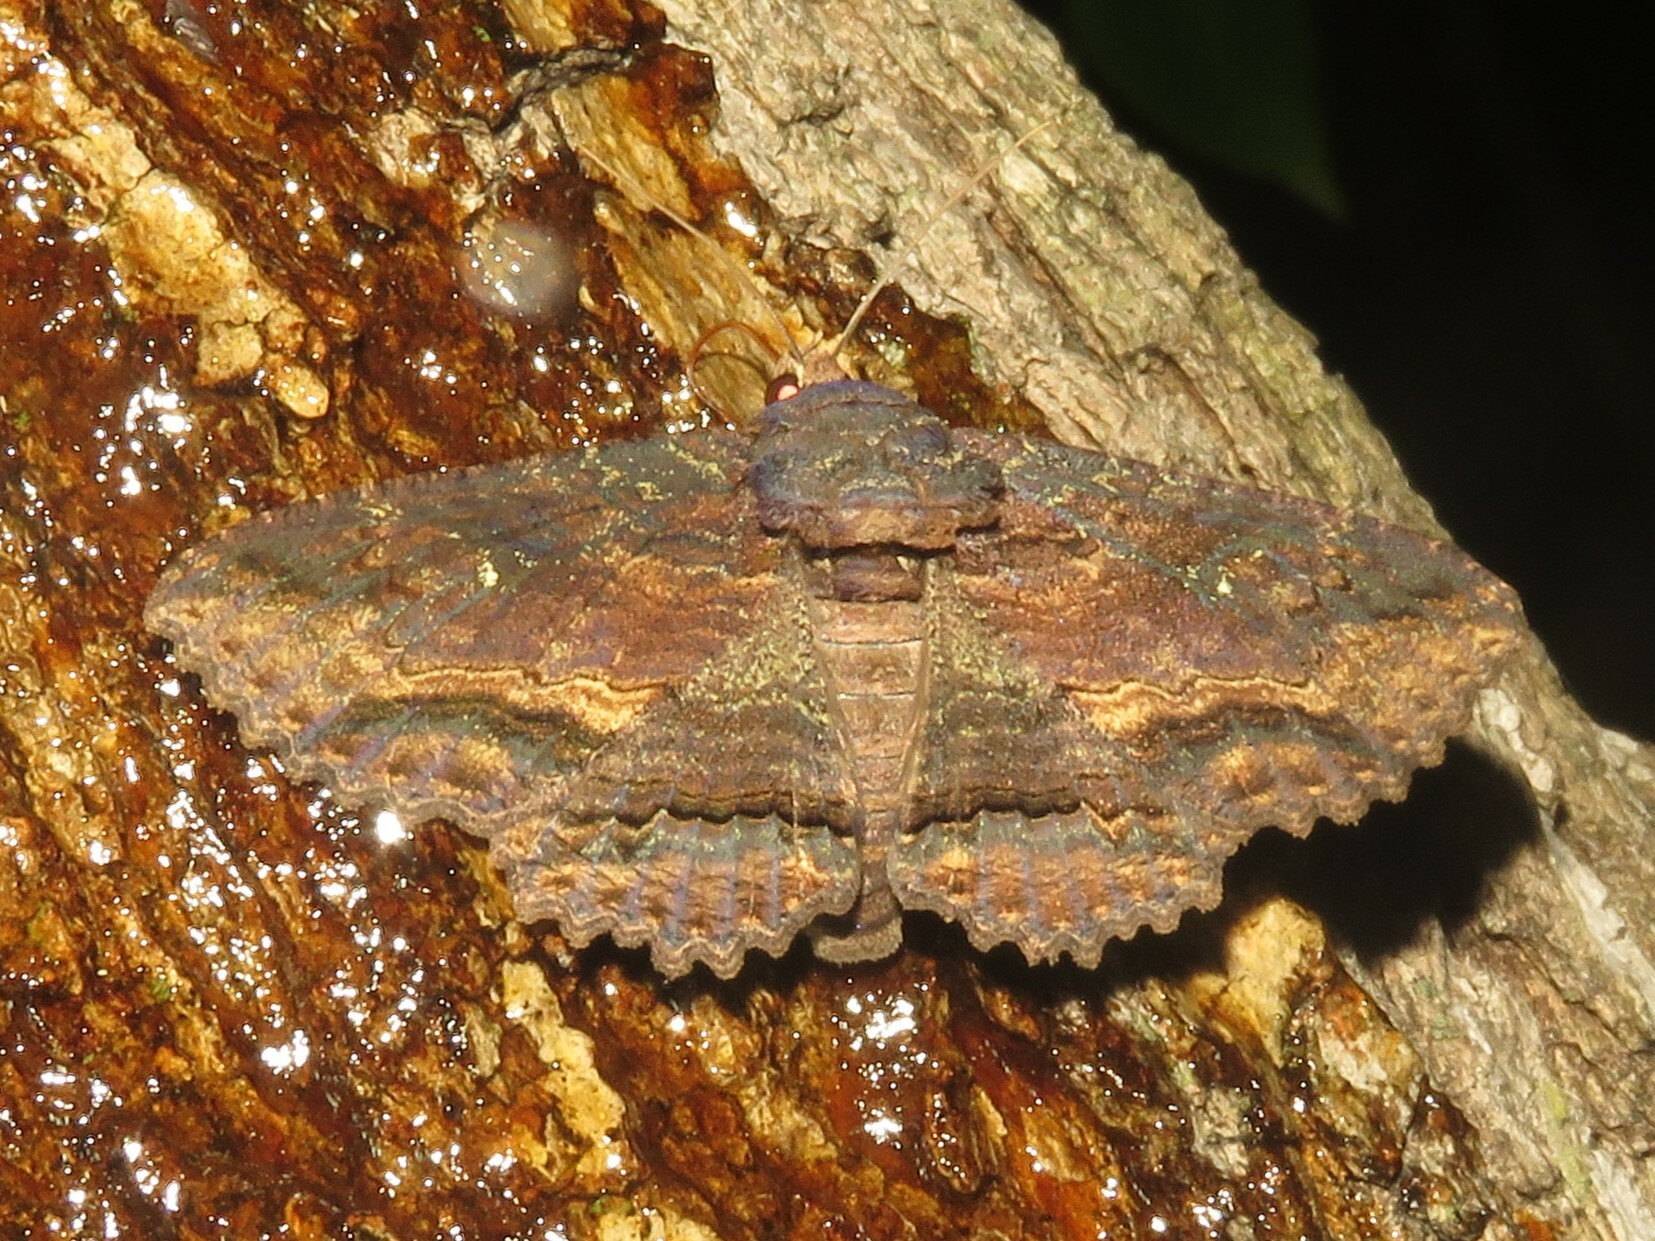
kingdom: Animalia
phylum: Arthropoda
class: Insecta
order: Lepidoptera
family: Erebidae
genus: Zale
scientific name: Zale lunata
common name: Lunate zale moth
